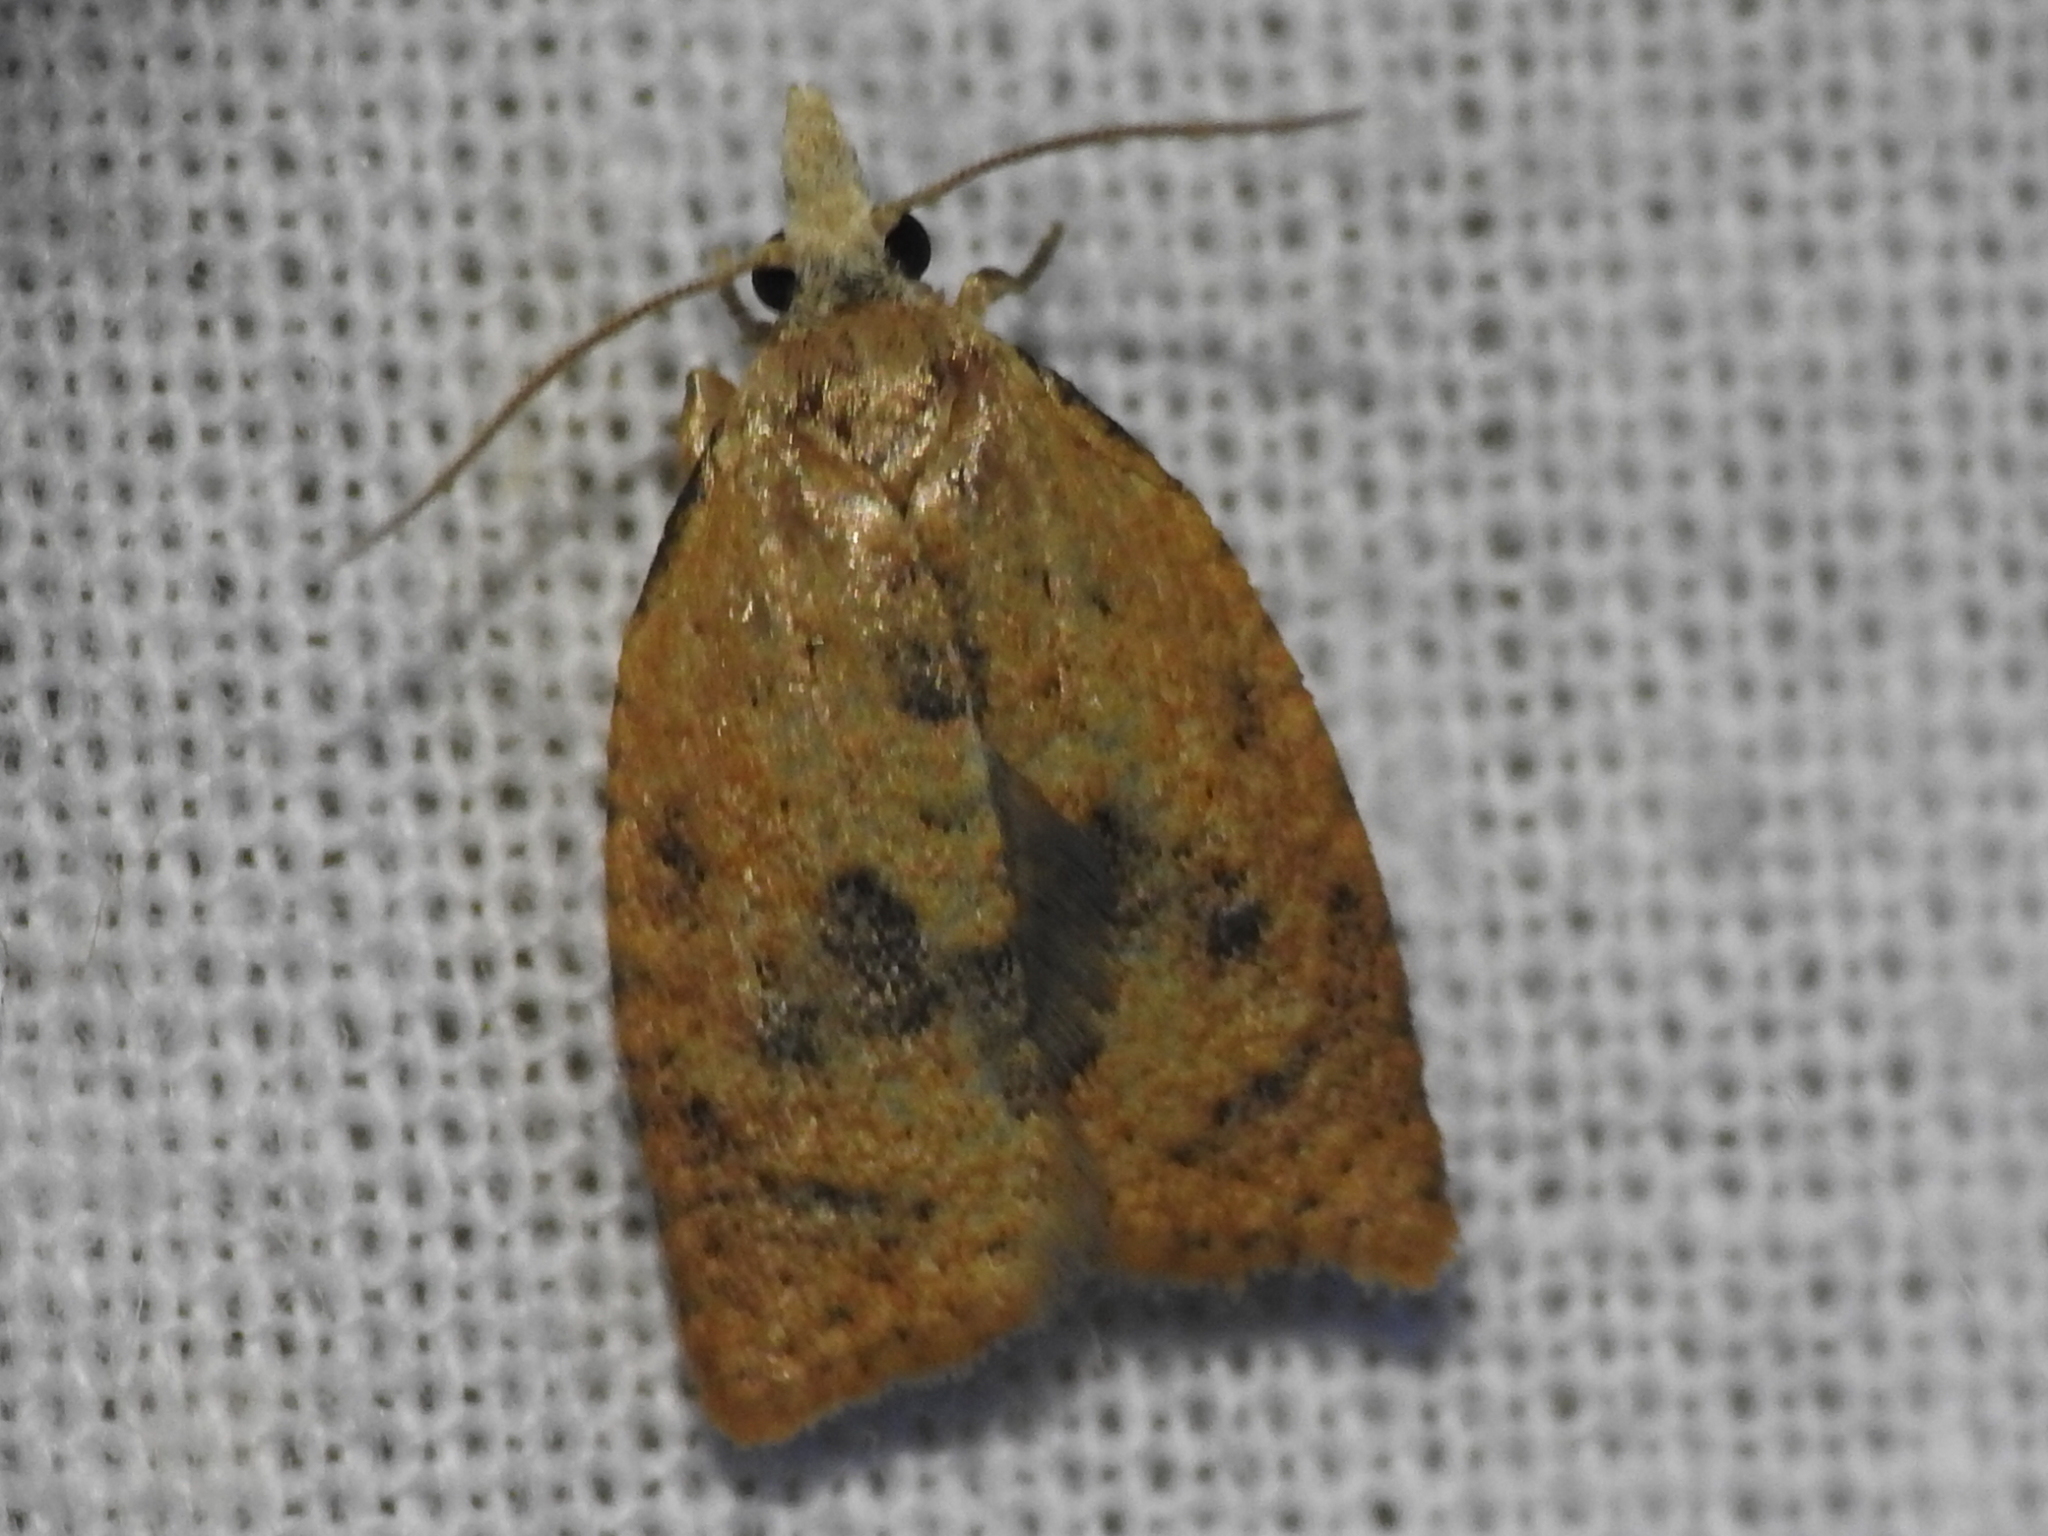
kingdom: Animalia
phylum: Arthropoda
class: Insecta
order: Lepidoptera
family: Tortricidae
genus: Sparganothoides
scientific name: Sparganothoides lentiginosana
